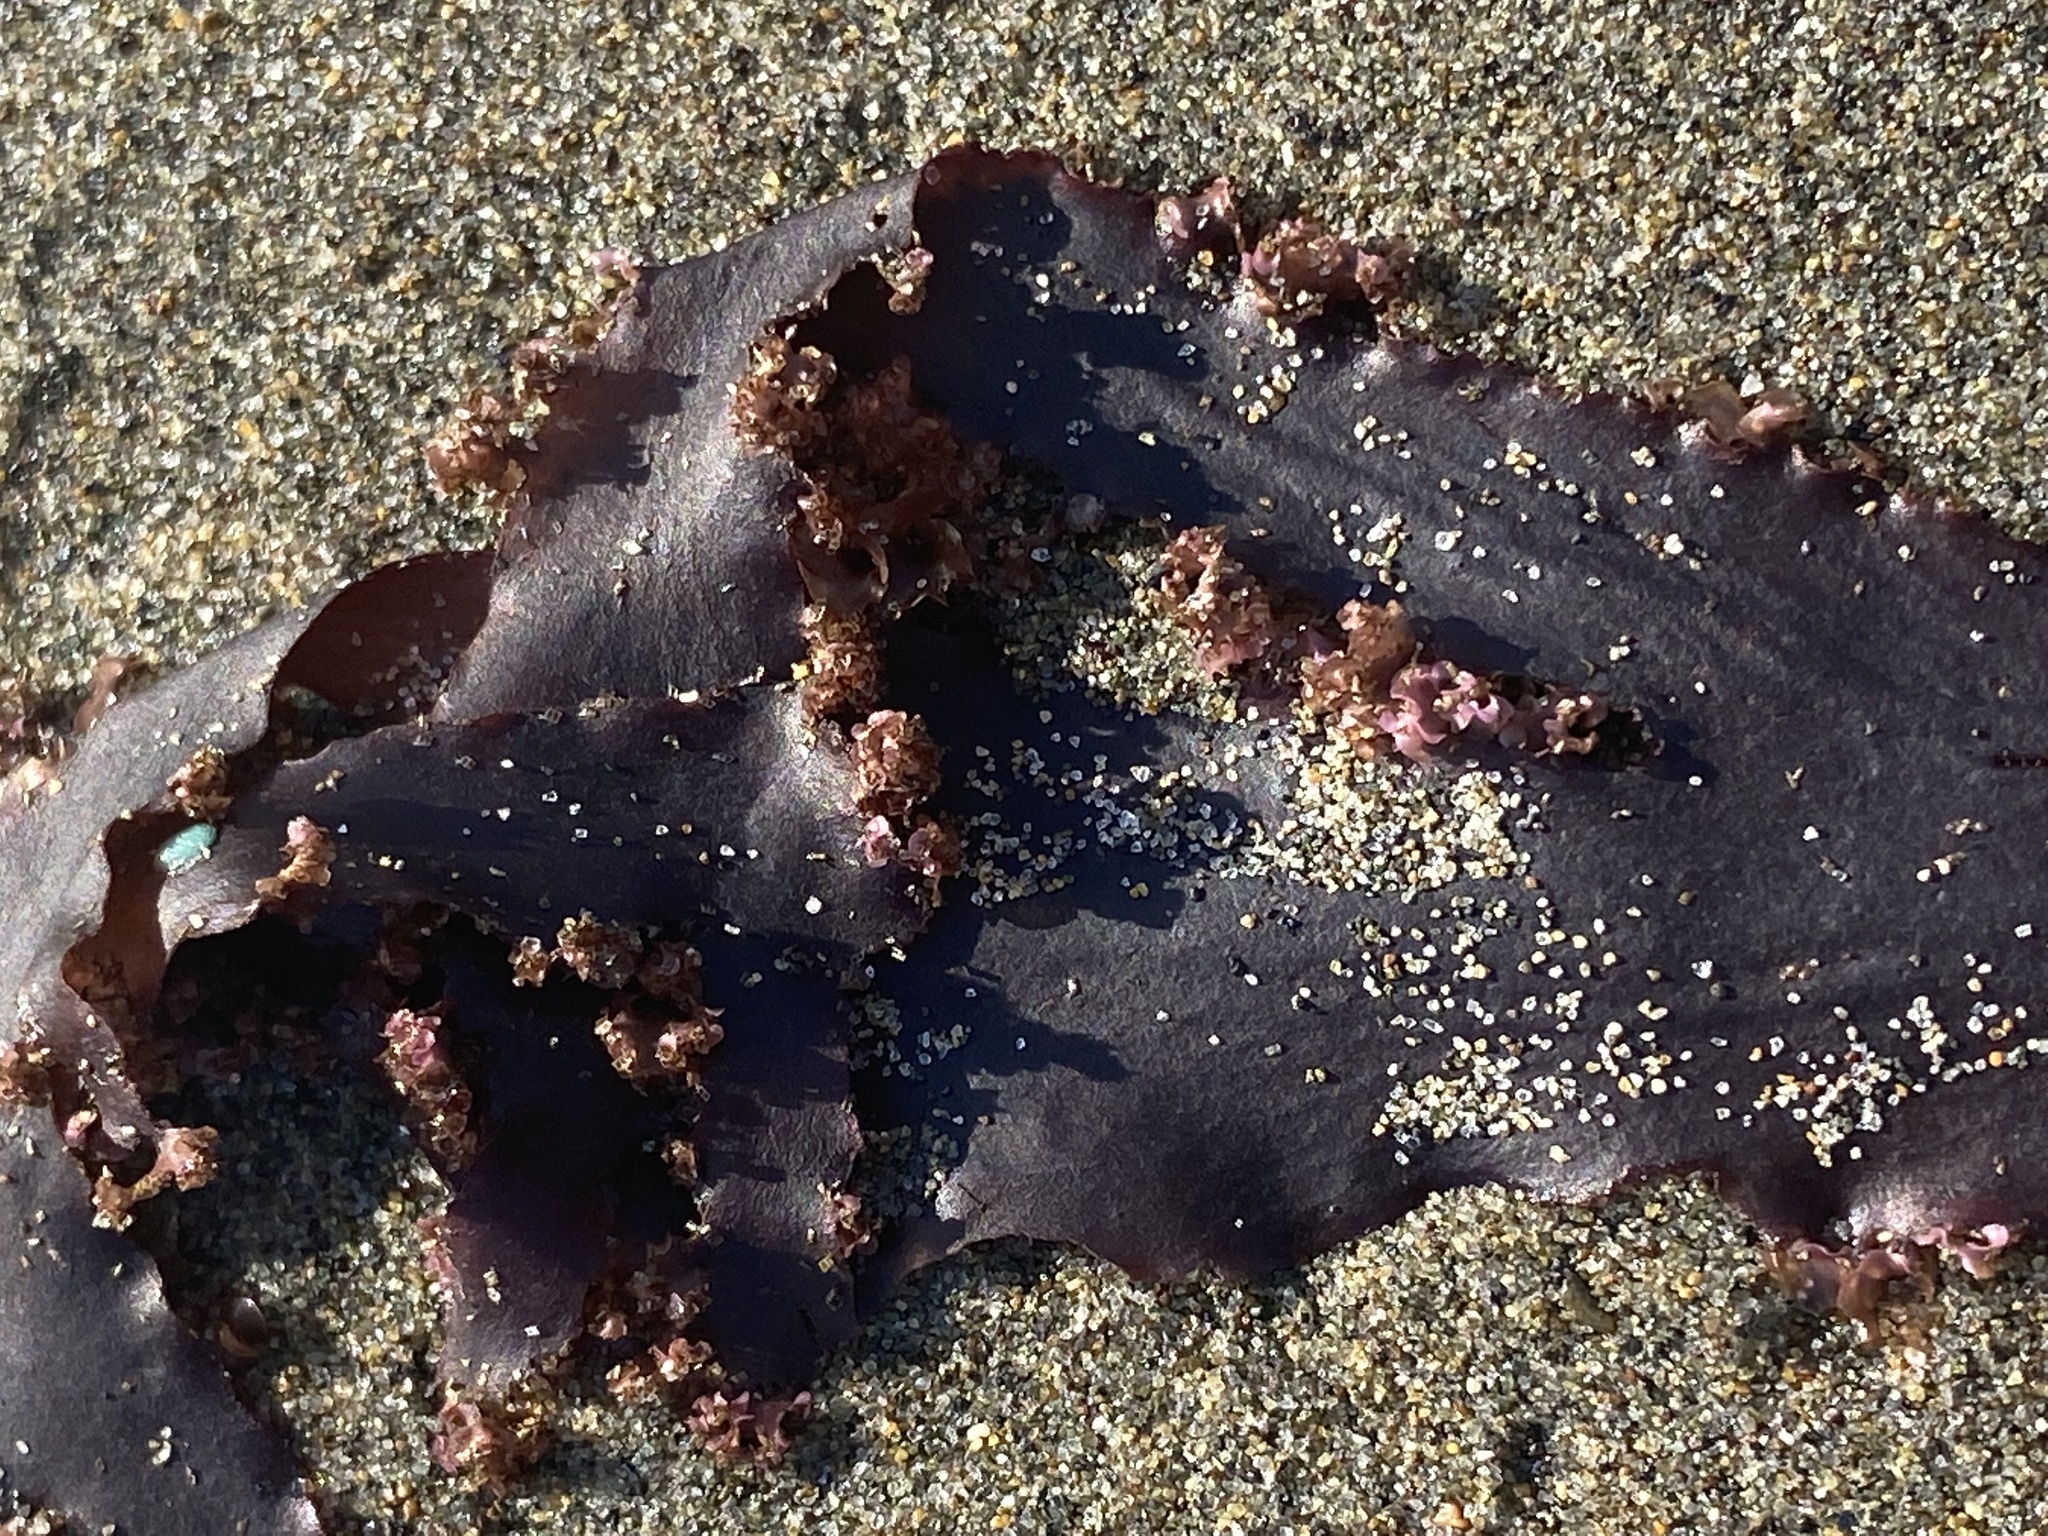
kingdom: Plantae
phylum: Rhodophyta
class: Florideophyceae
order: Ceramiales
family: Delesseriaceae
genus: Cryptopleura
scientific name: Cryptopleura ruprechtiana
